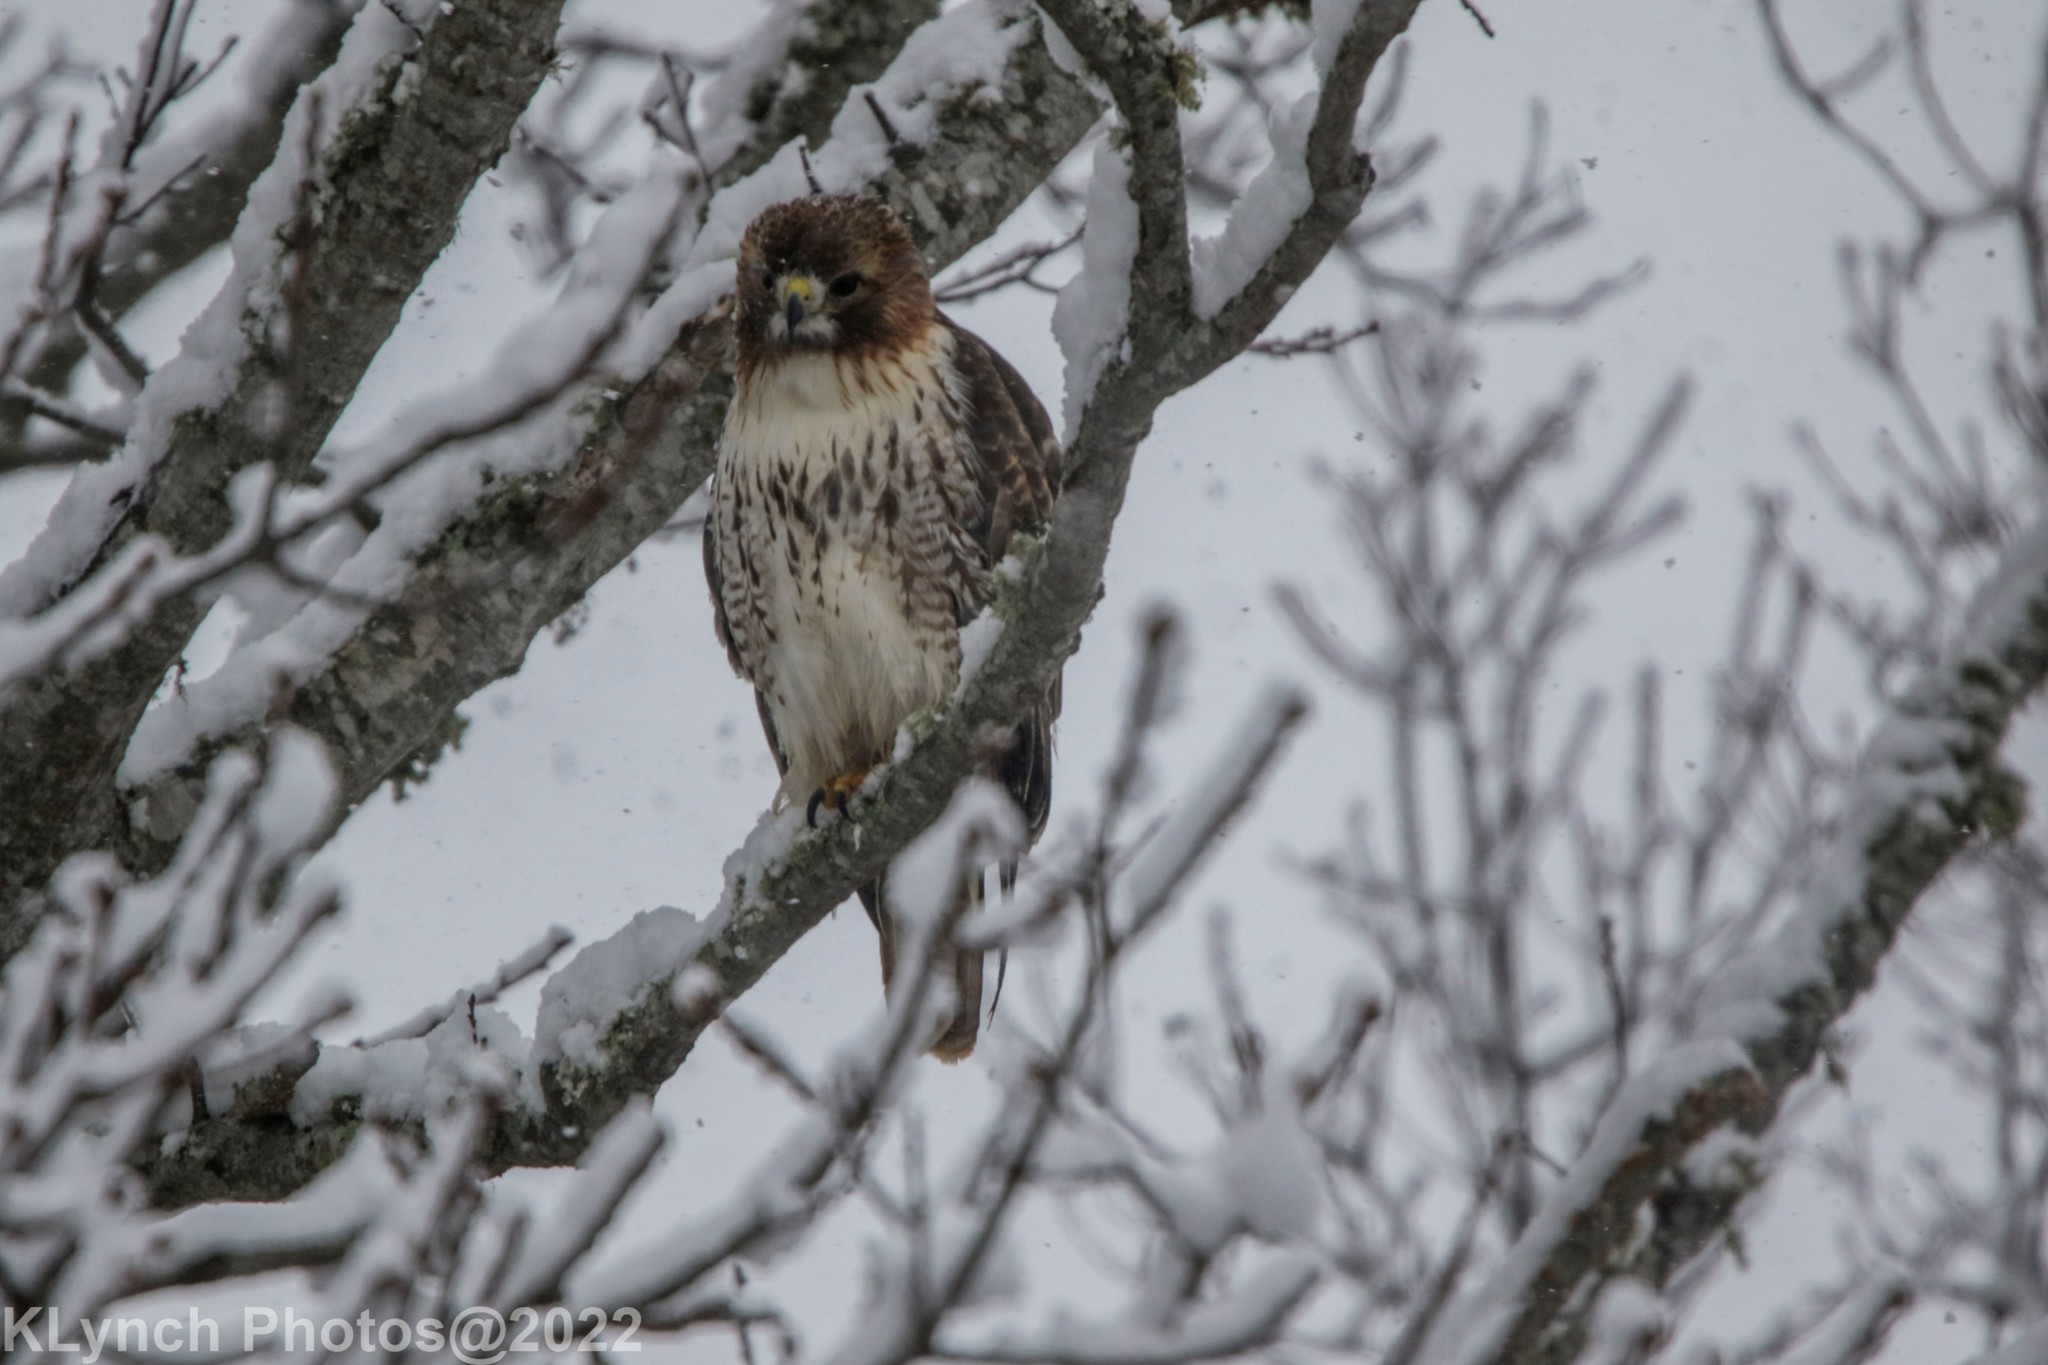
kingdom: Animalia
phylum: Chordata
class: Aves
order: Accipitriformes
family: Accipitridae
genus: Buteo
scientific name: Buteo jamaicensis
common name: Red-tailed hawk
